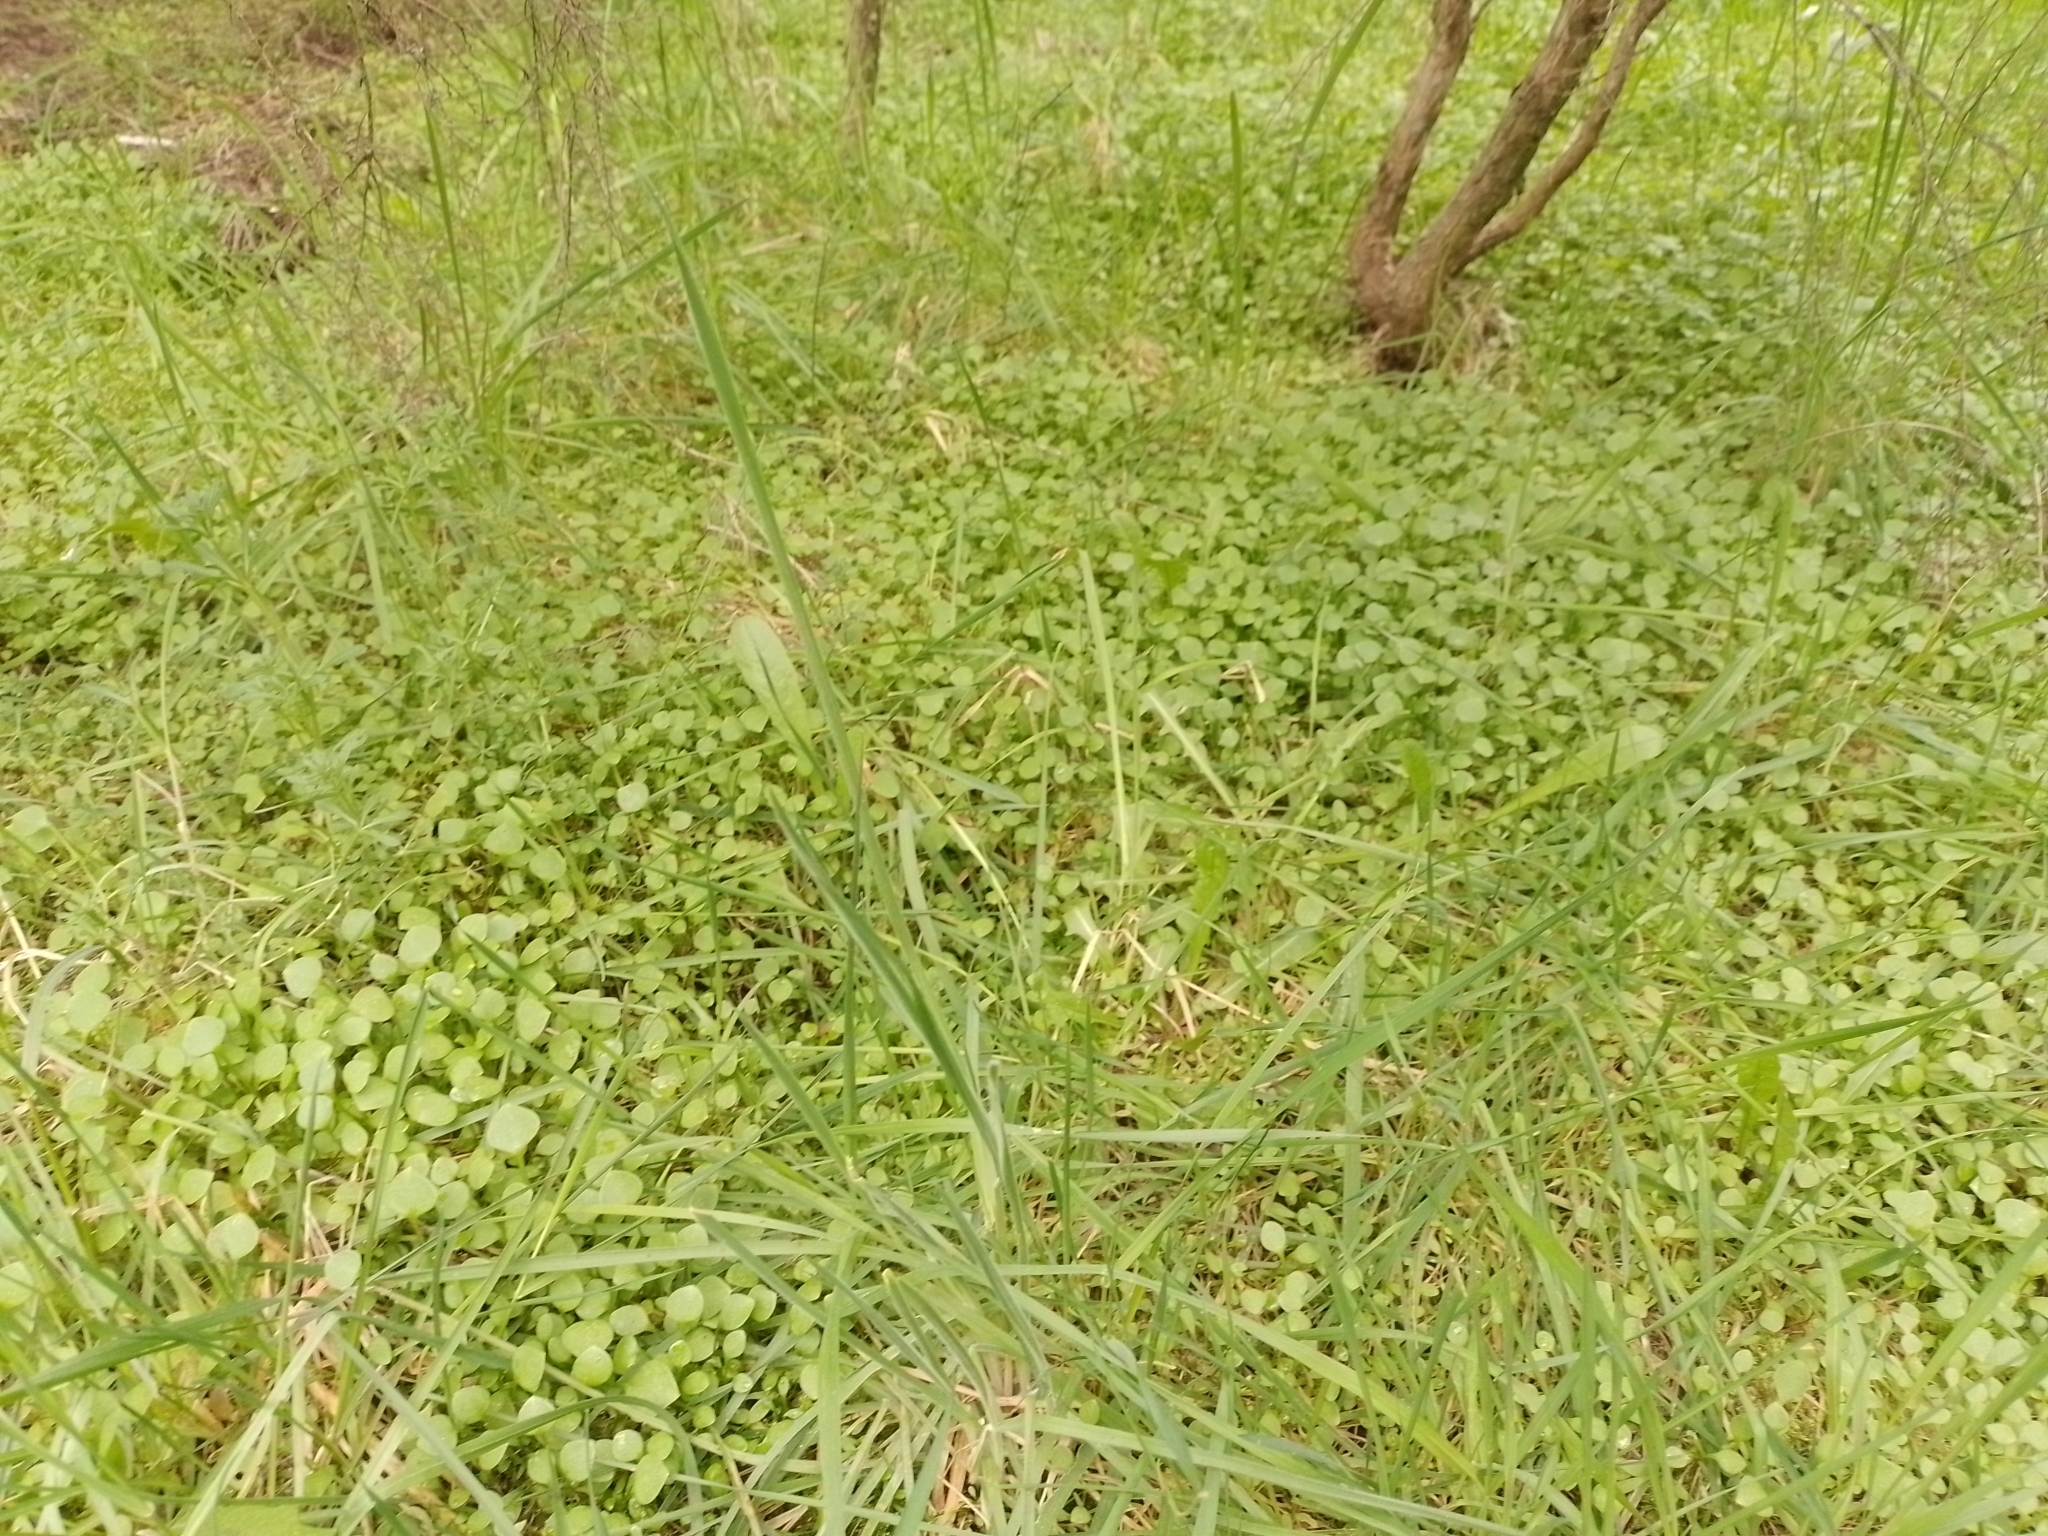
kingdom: Plantae
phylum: Tracheophyta
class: Magnoliopsida
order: Caryophyllales
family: Montiaceae
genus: Claytonia
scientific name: Claytonia perfoliata
